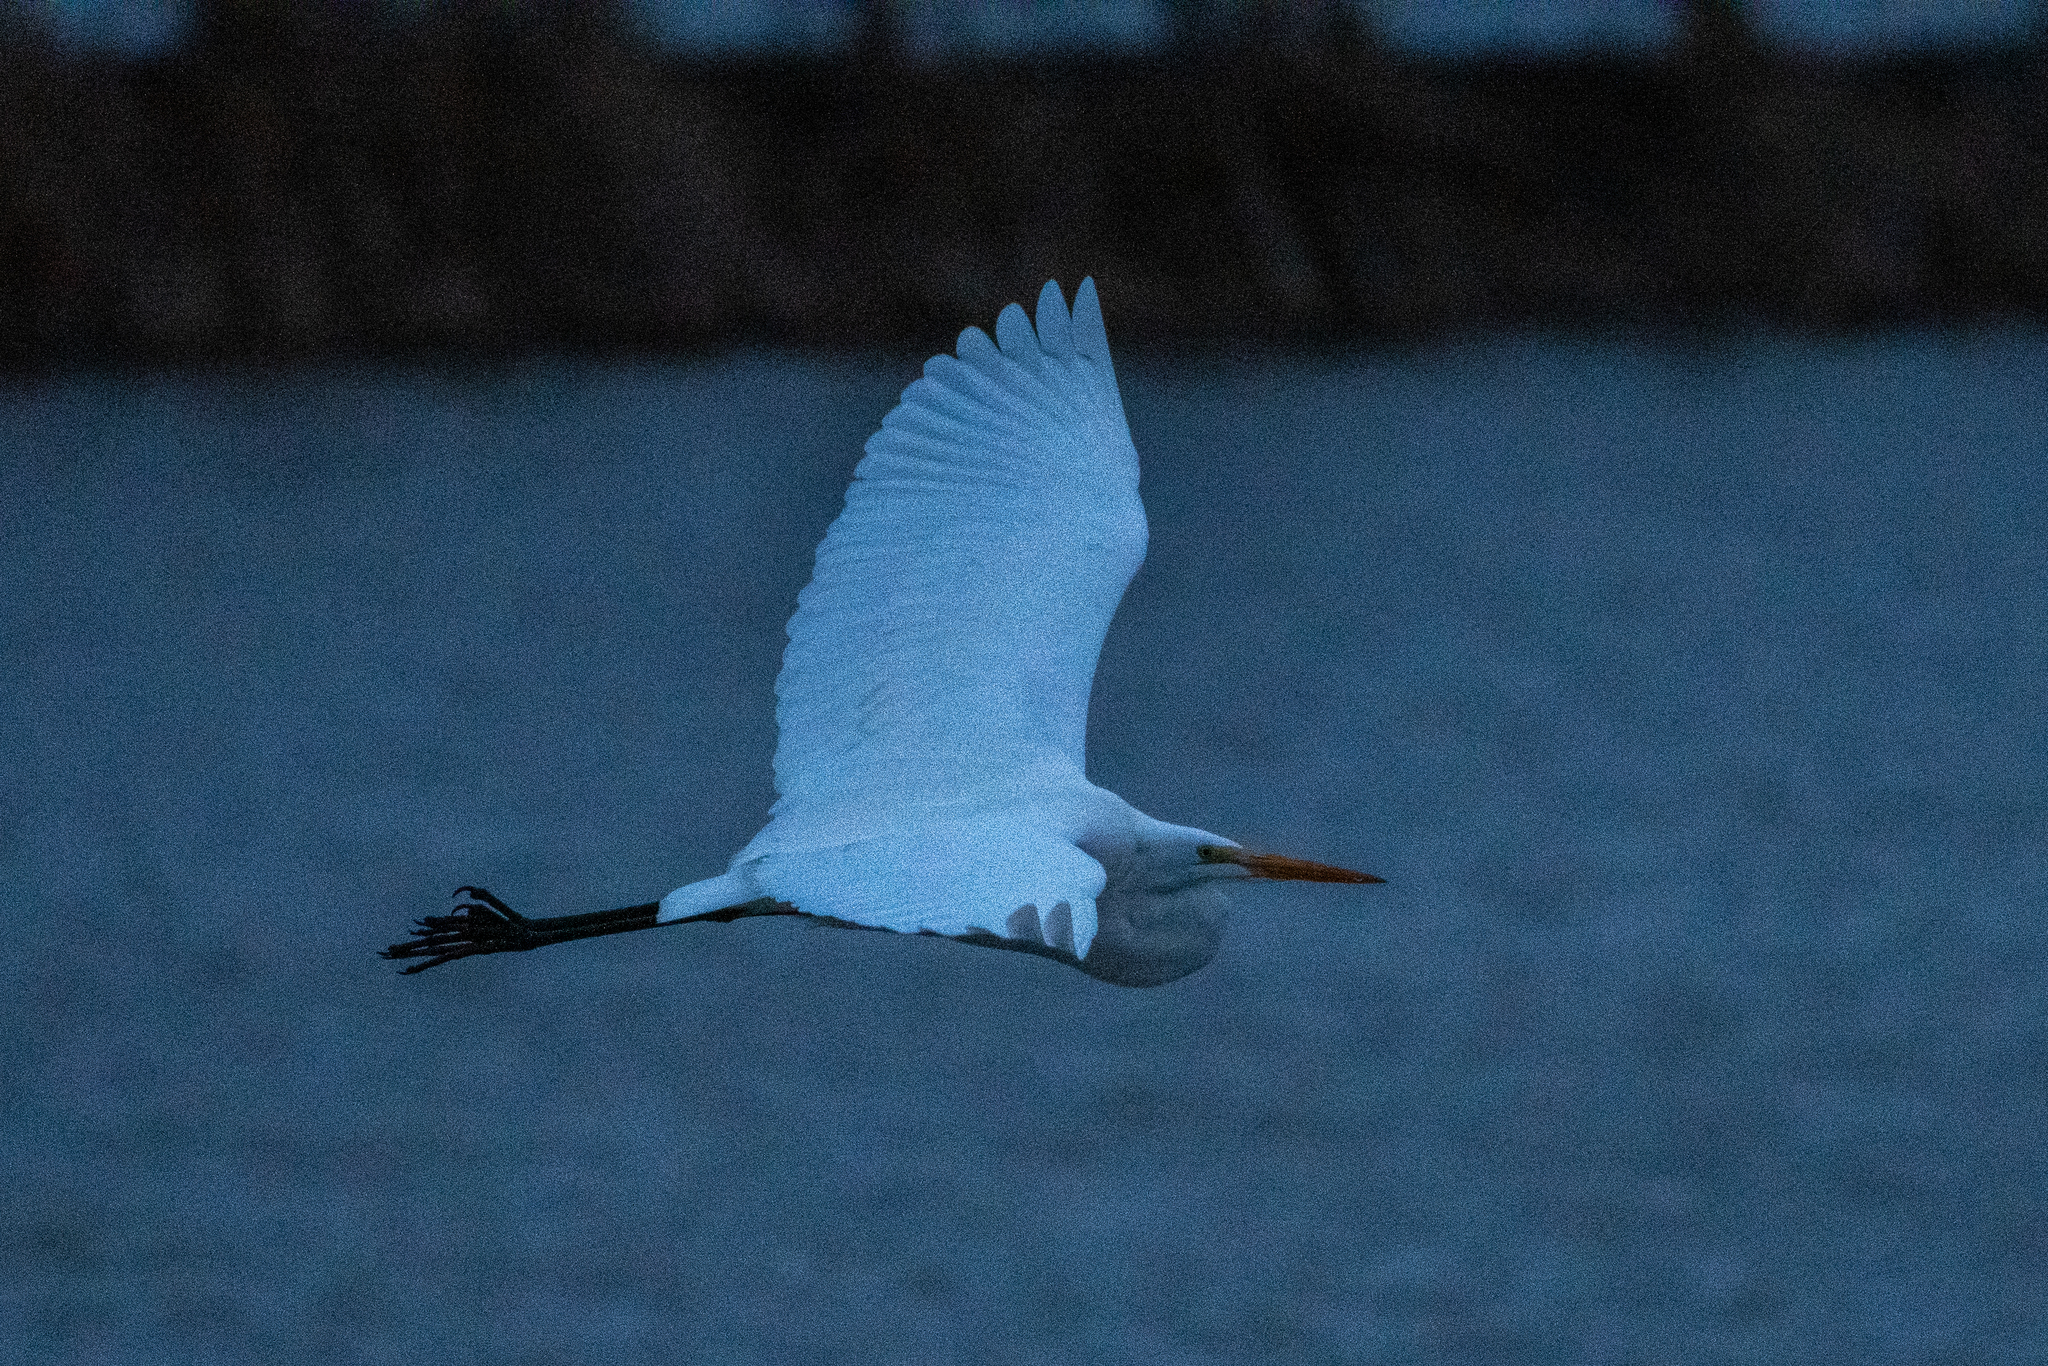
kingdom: Animalia
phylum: Chordata
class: Aves
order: Pelecaniformes
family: Ardeidae
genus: Ardea
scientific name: Ardea alba
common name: Great egret
